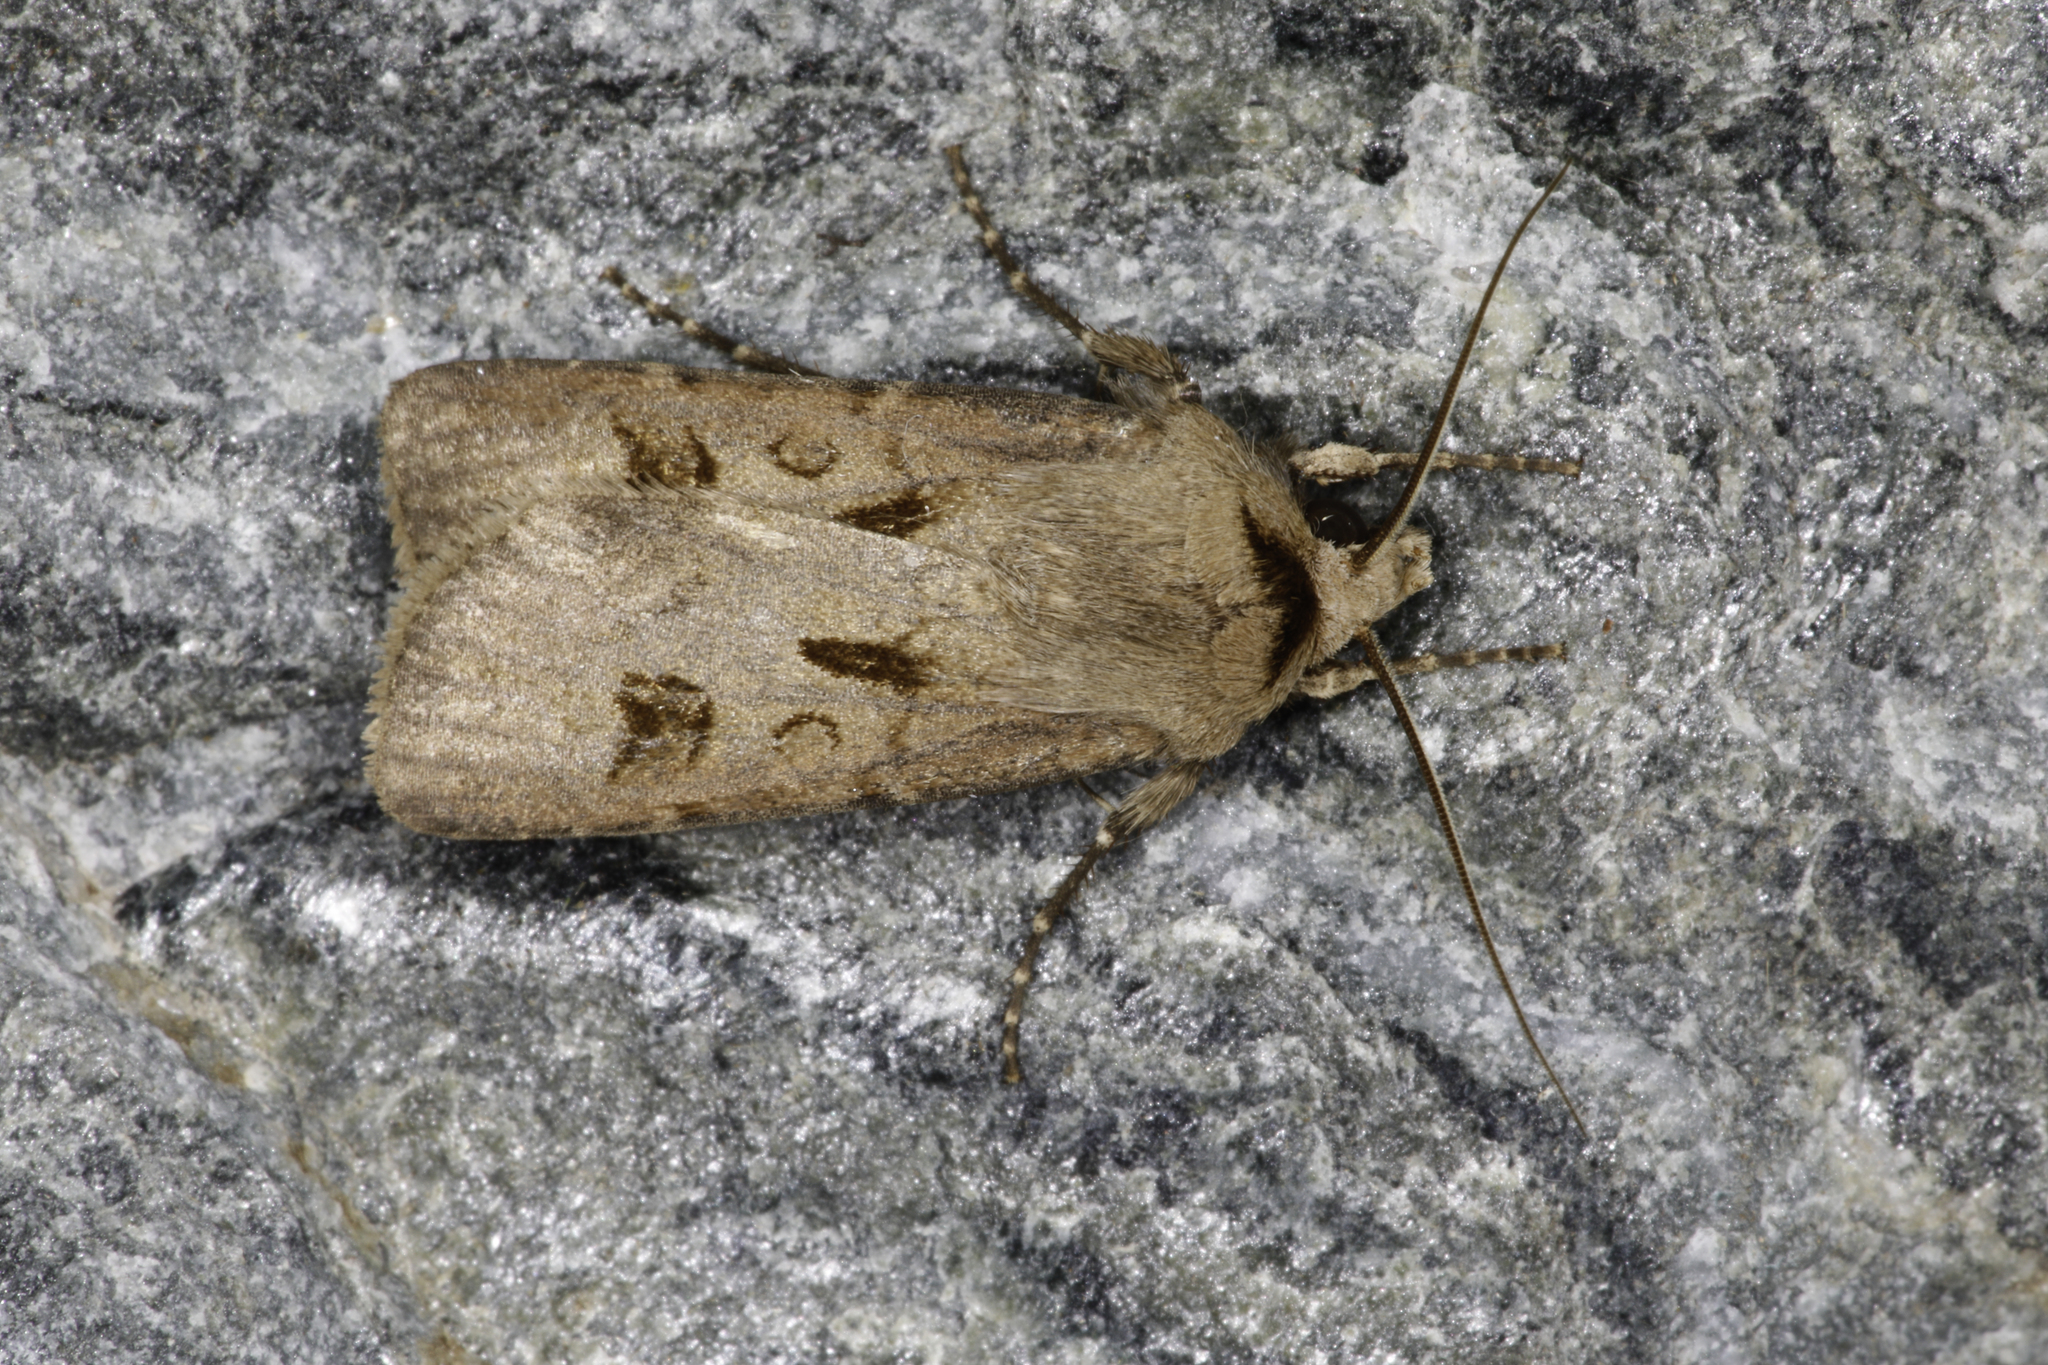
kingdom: Animalia
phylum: Arthropoda
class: Insecta
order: Lepidoptera
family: Noctuidae
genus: Agrotis
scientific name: Agrotis exclamationis
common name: Heart and dart
